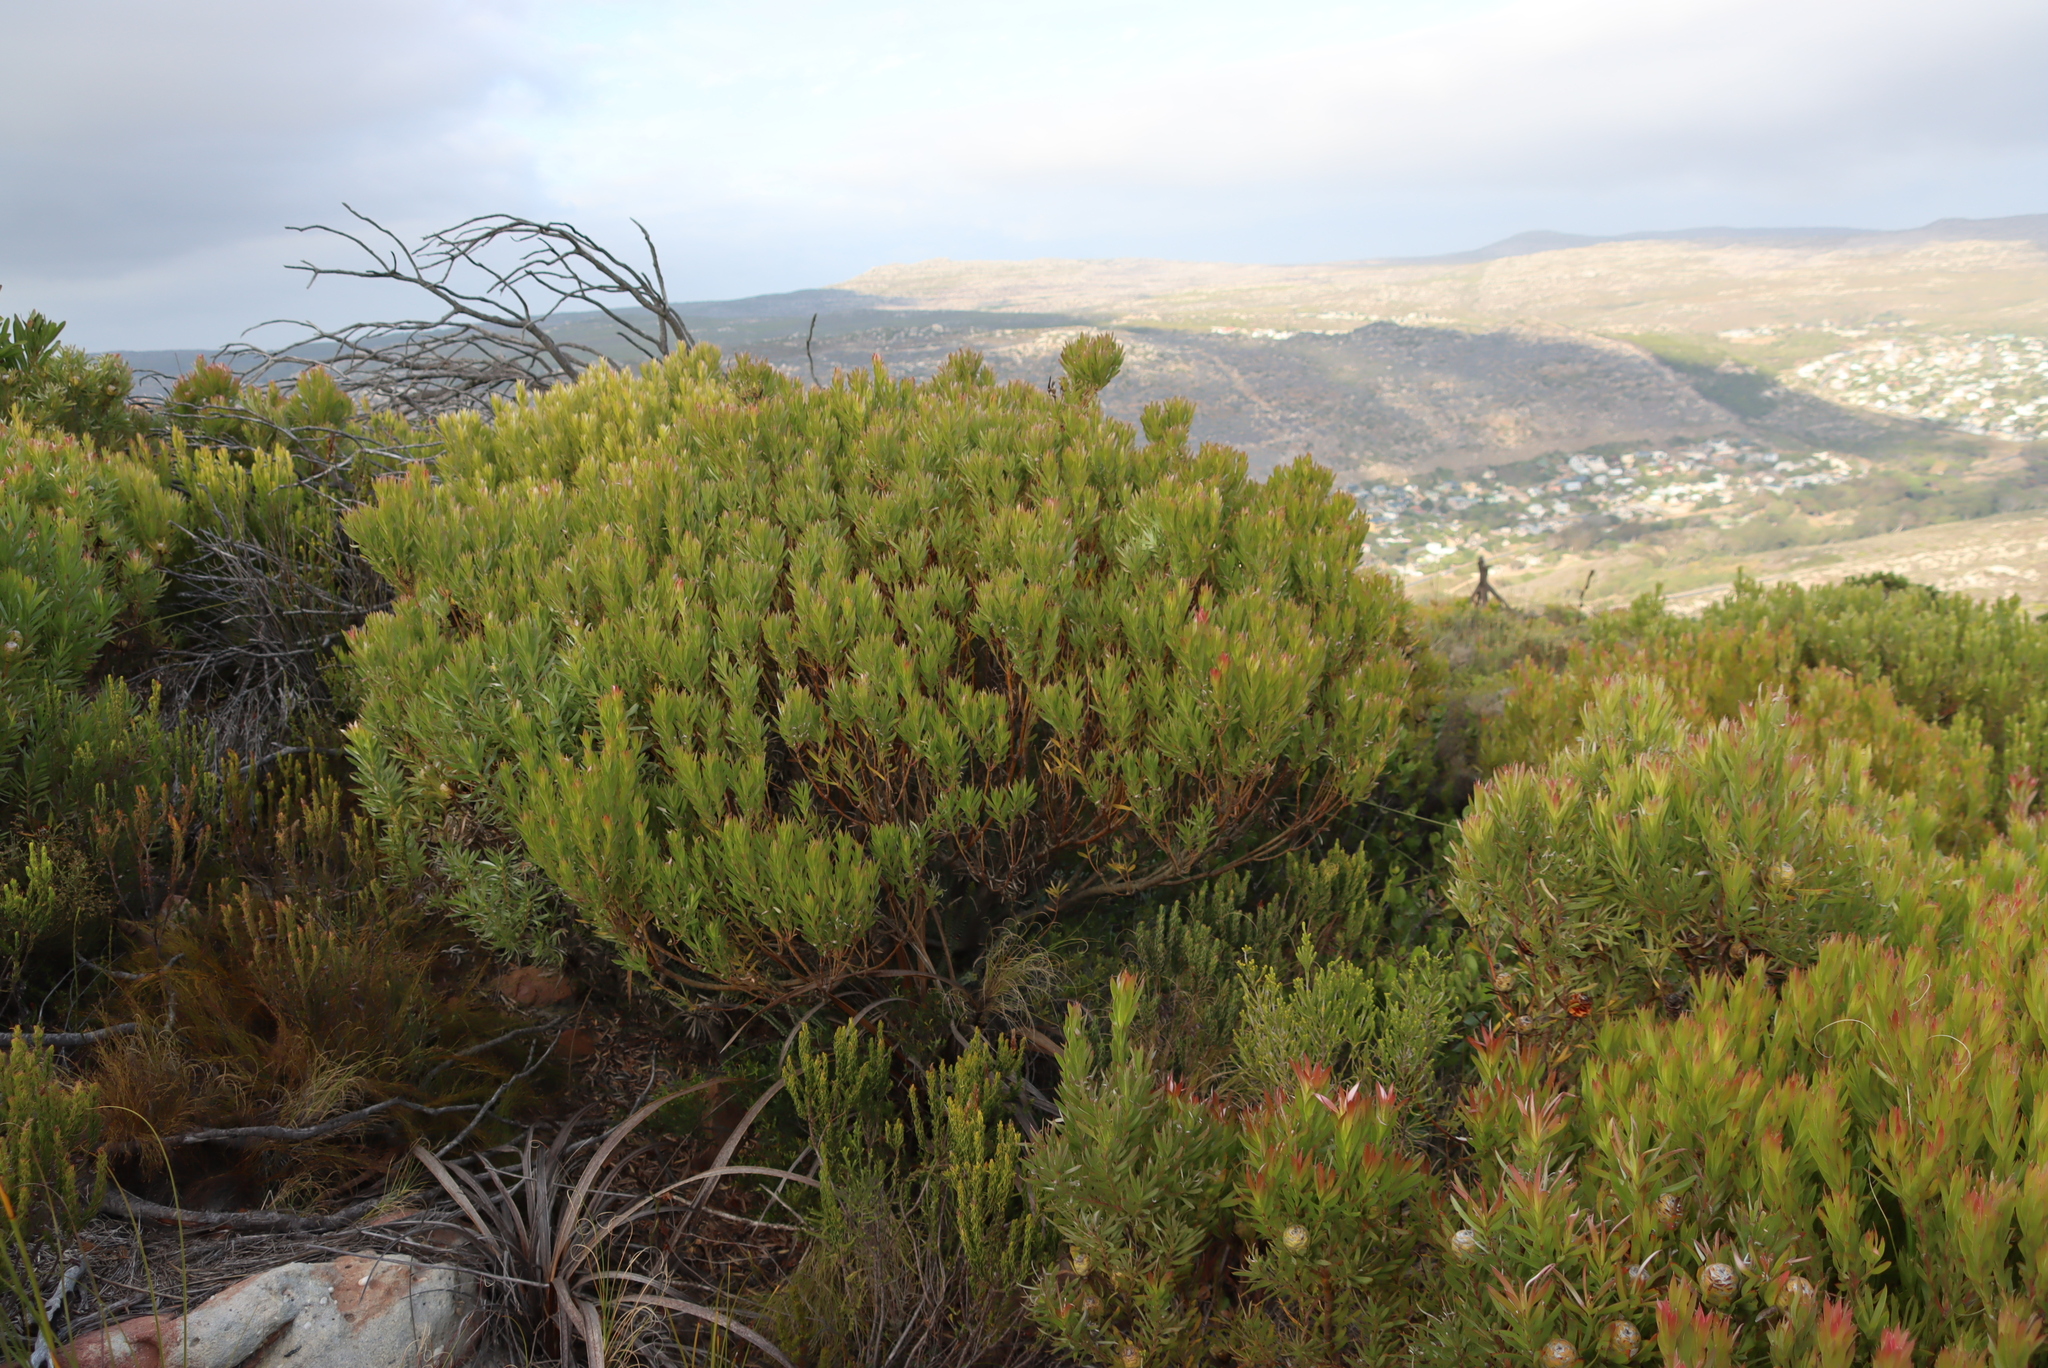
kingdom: Plantae
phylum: Tracheophyta
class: Magnoliopsida
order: Proteales
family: Proteaceae
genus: Leucadendron
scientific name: Leucadendron xanthoconus
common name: Sickle-leaf conebush
